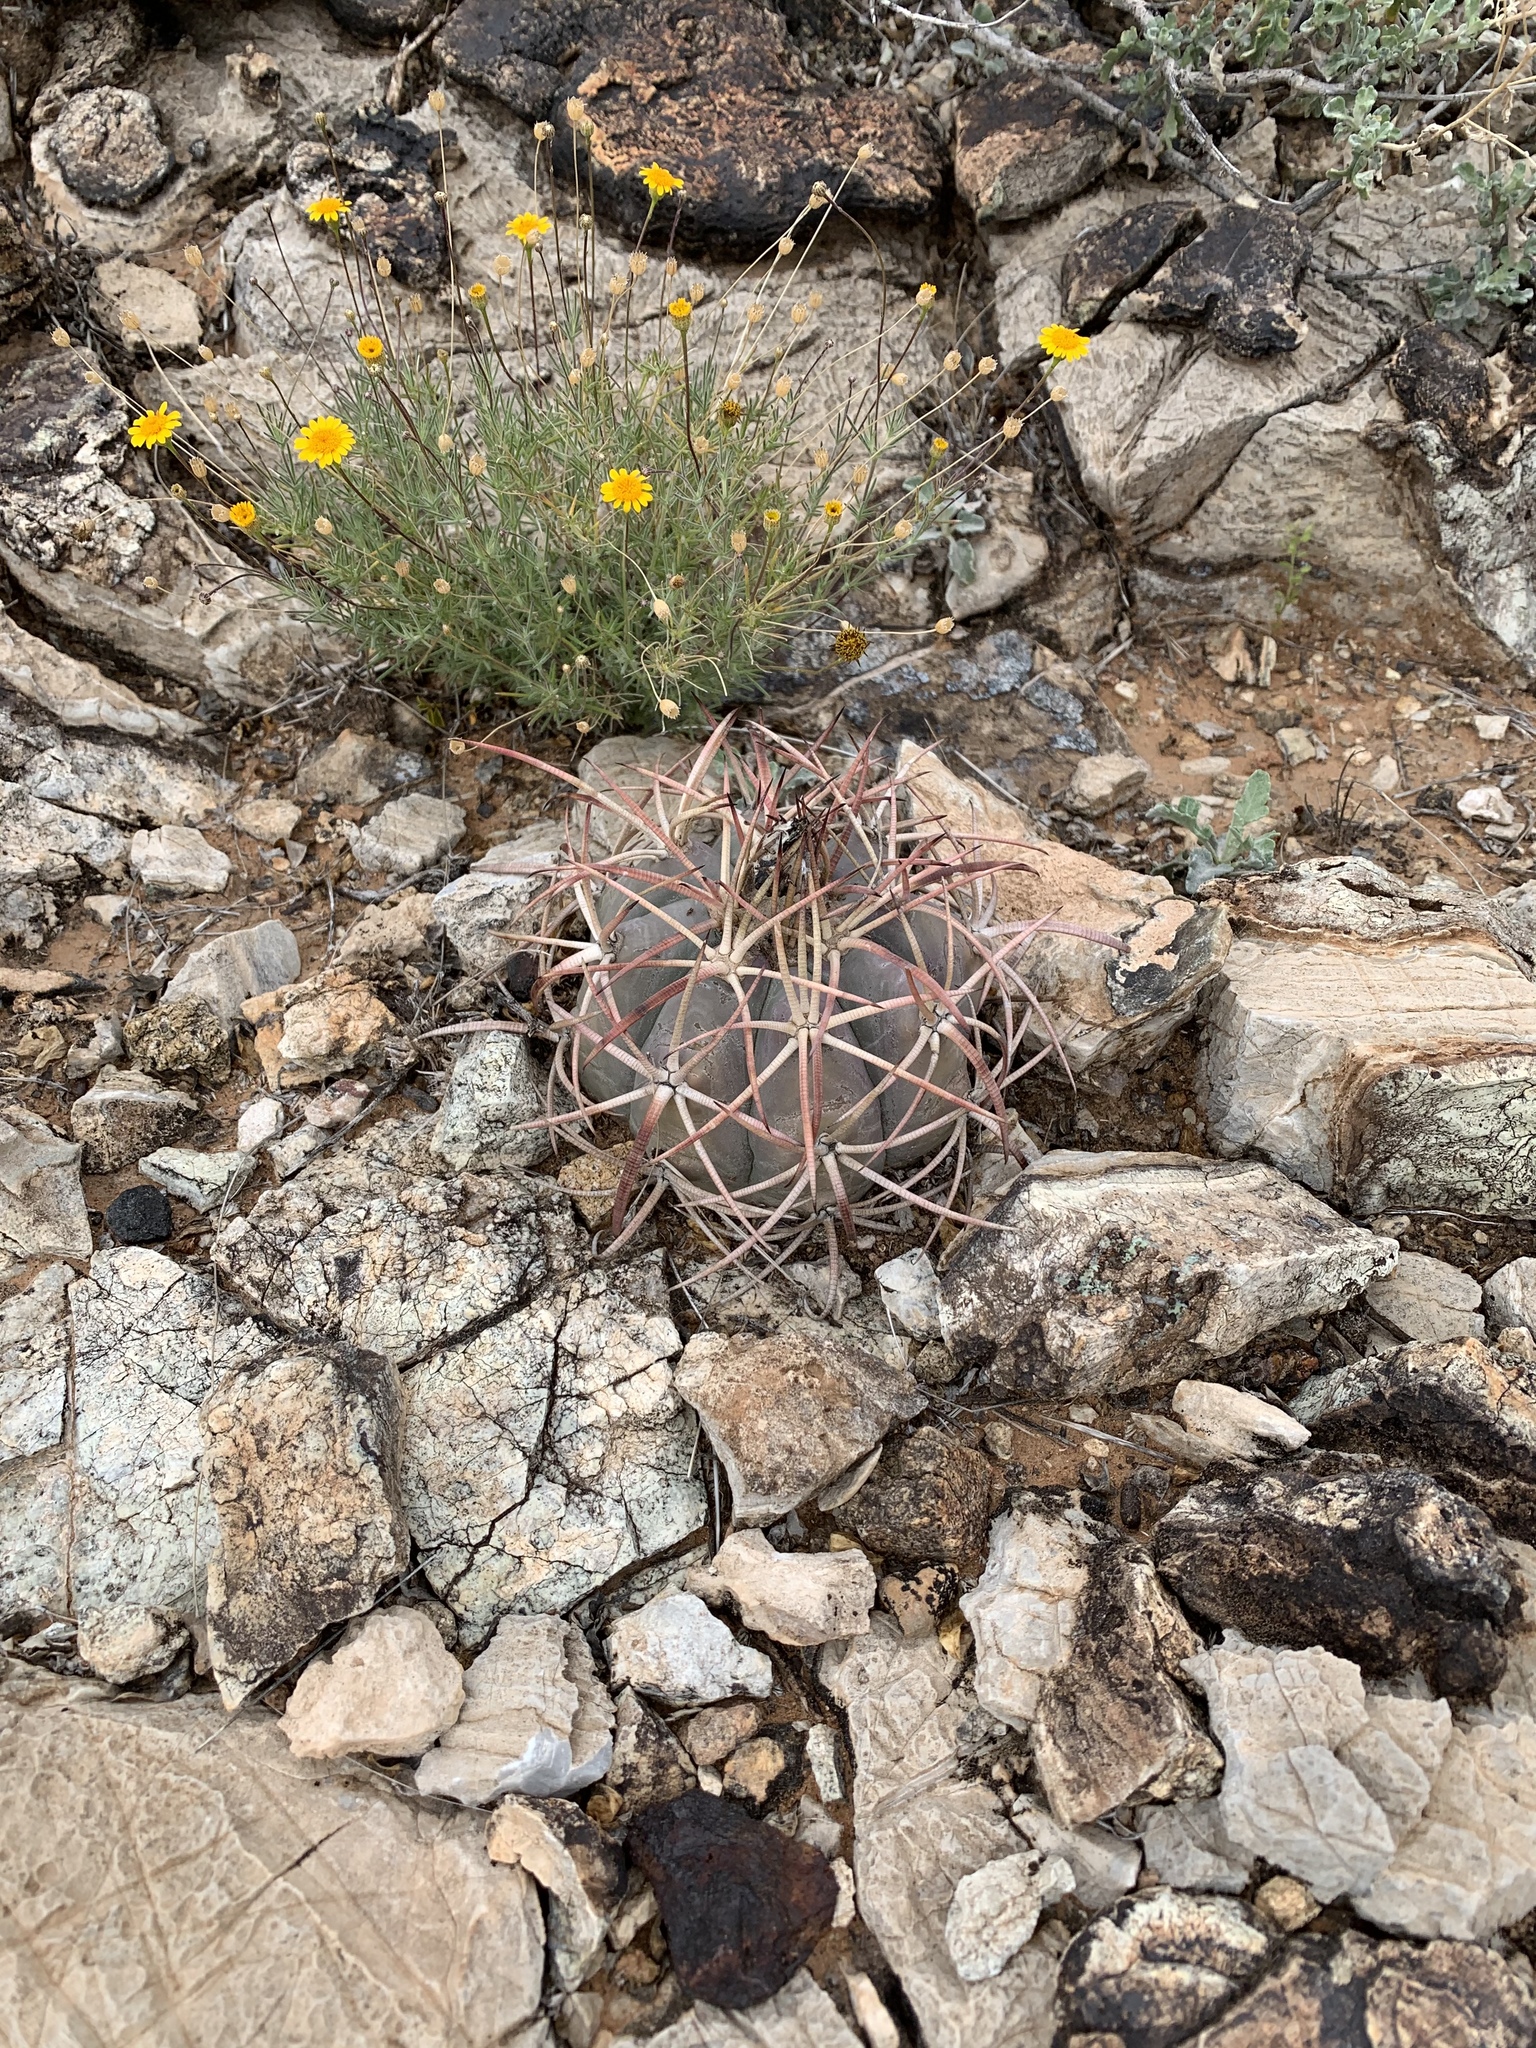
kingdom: Plantae
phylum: Tracheophyta
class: Magnoliopsida
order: Caryophyllales
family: Cactaceae
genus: Echinocactus
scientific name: Echinocactus horizonthalonius
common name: Devilshead
